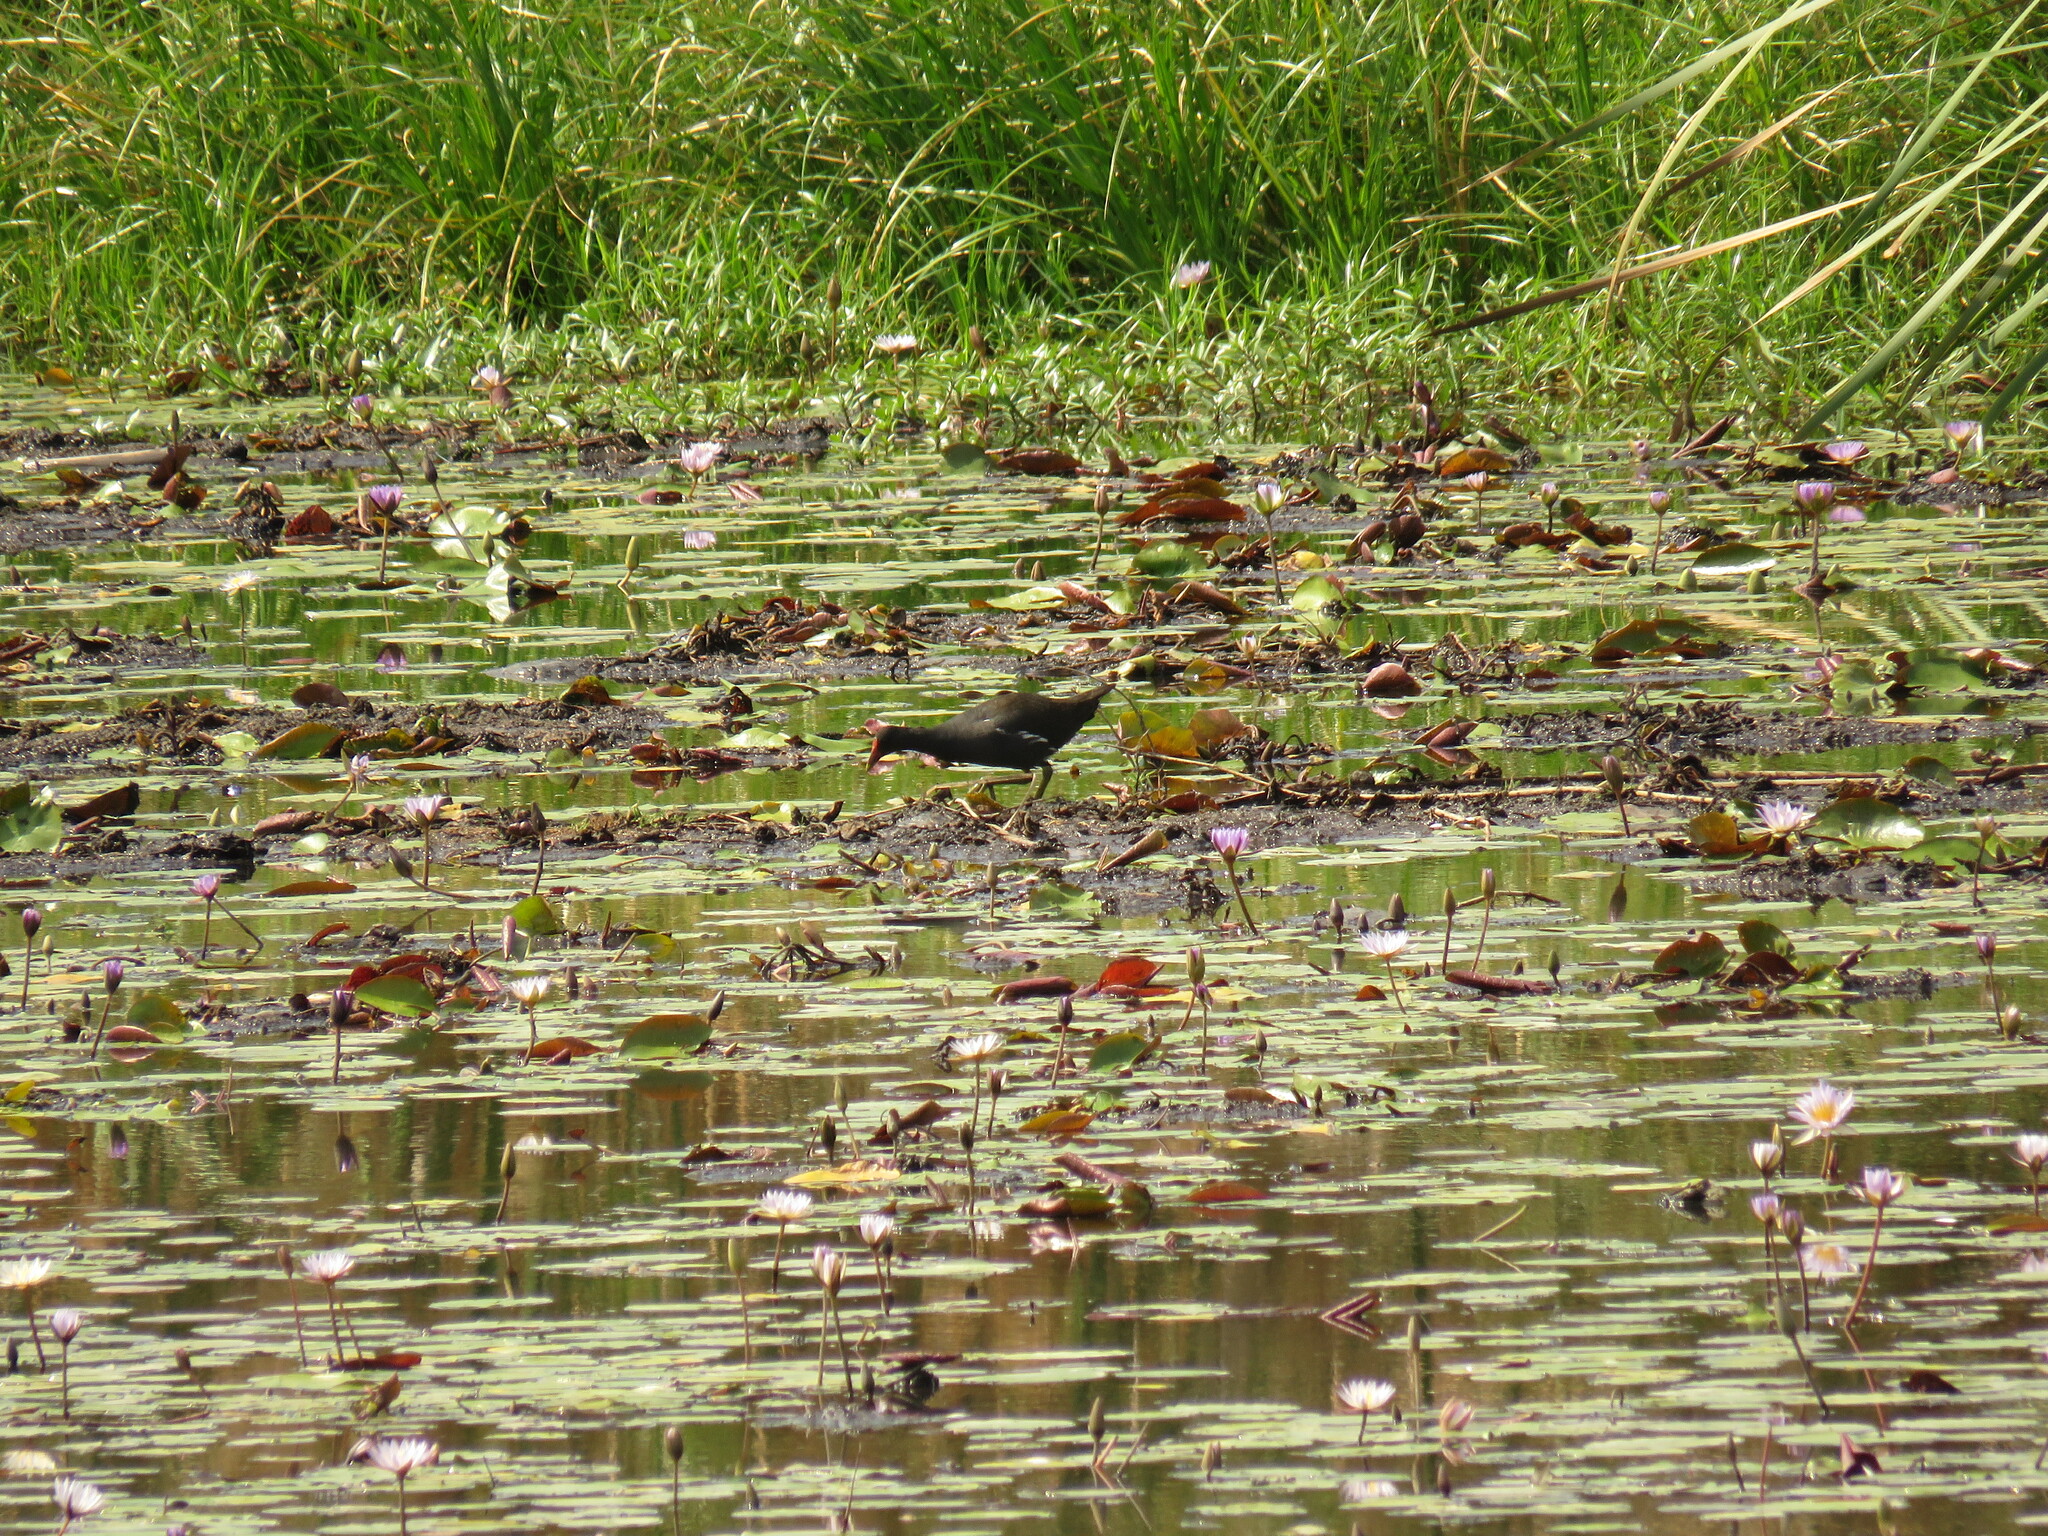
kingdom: Animalia
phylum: Chordata
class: Aves
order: Gruiformes
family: Rallidae
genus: Gallinula
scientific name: Gallinula chloropus
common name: Common moorhen
